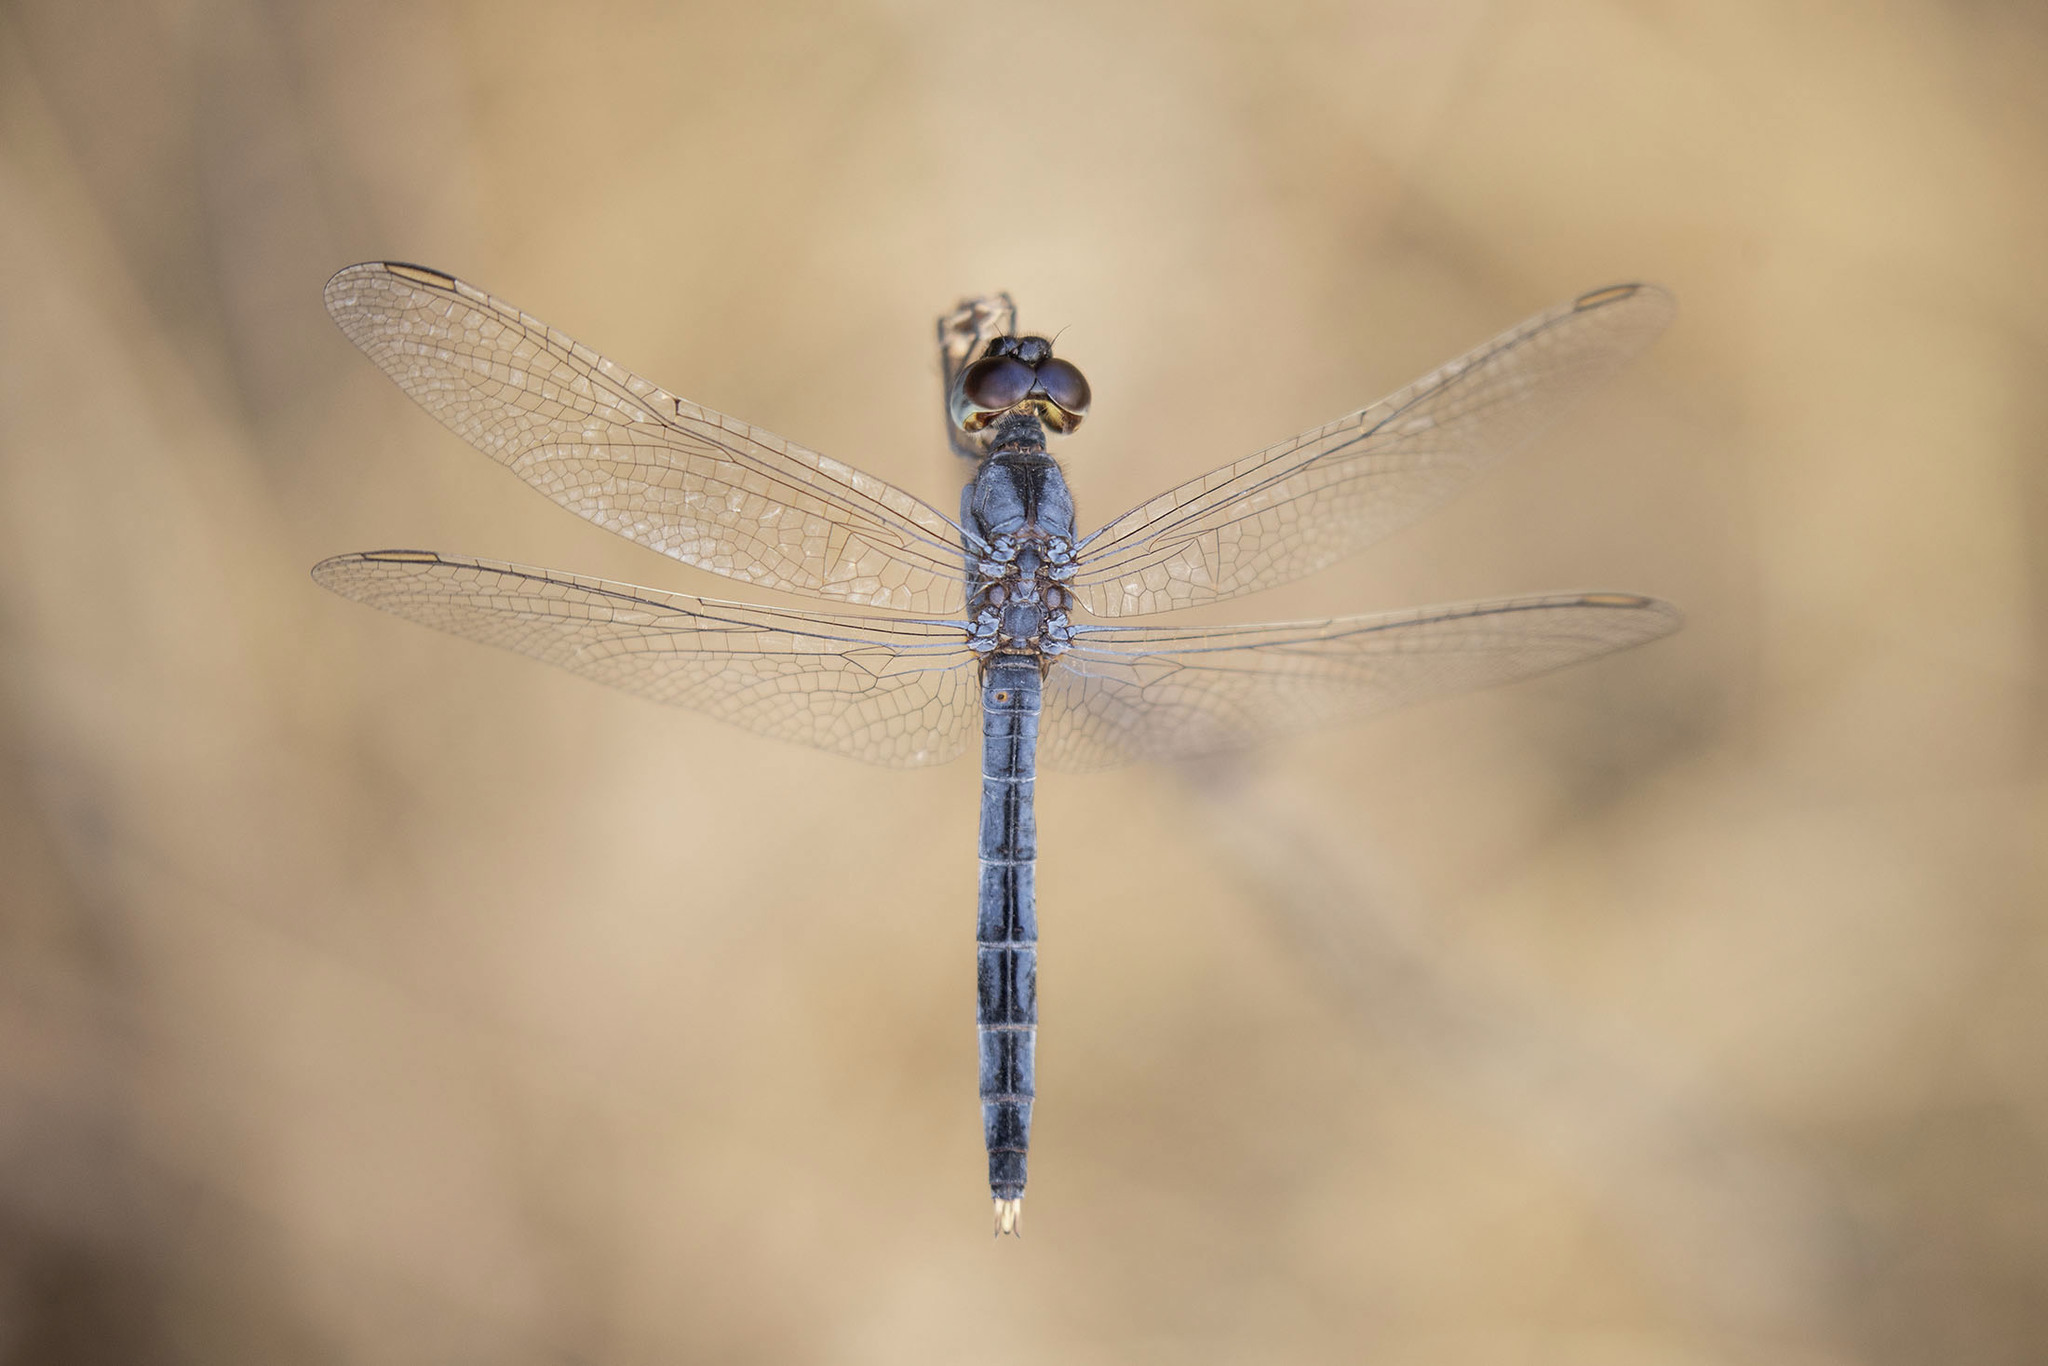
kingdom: Animalia
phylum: Arthropoda
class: Insecta
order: Odonata
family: Libellulidae
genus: Indothemis
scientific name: Indothemis carnatica
